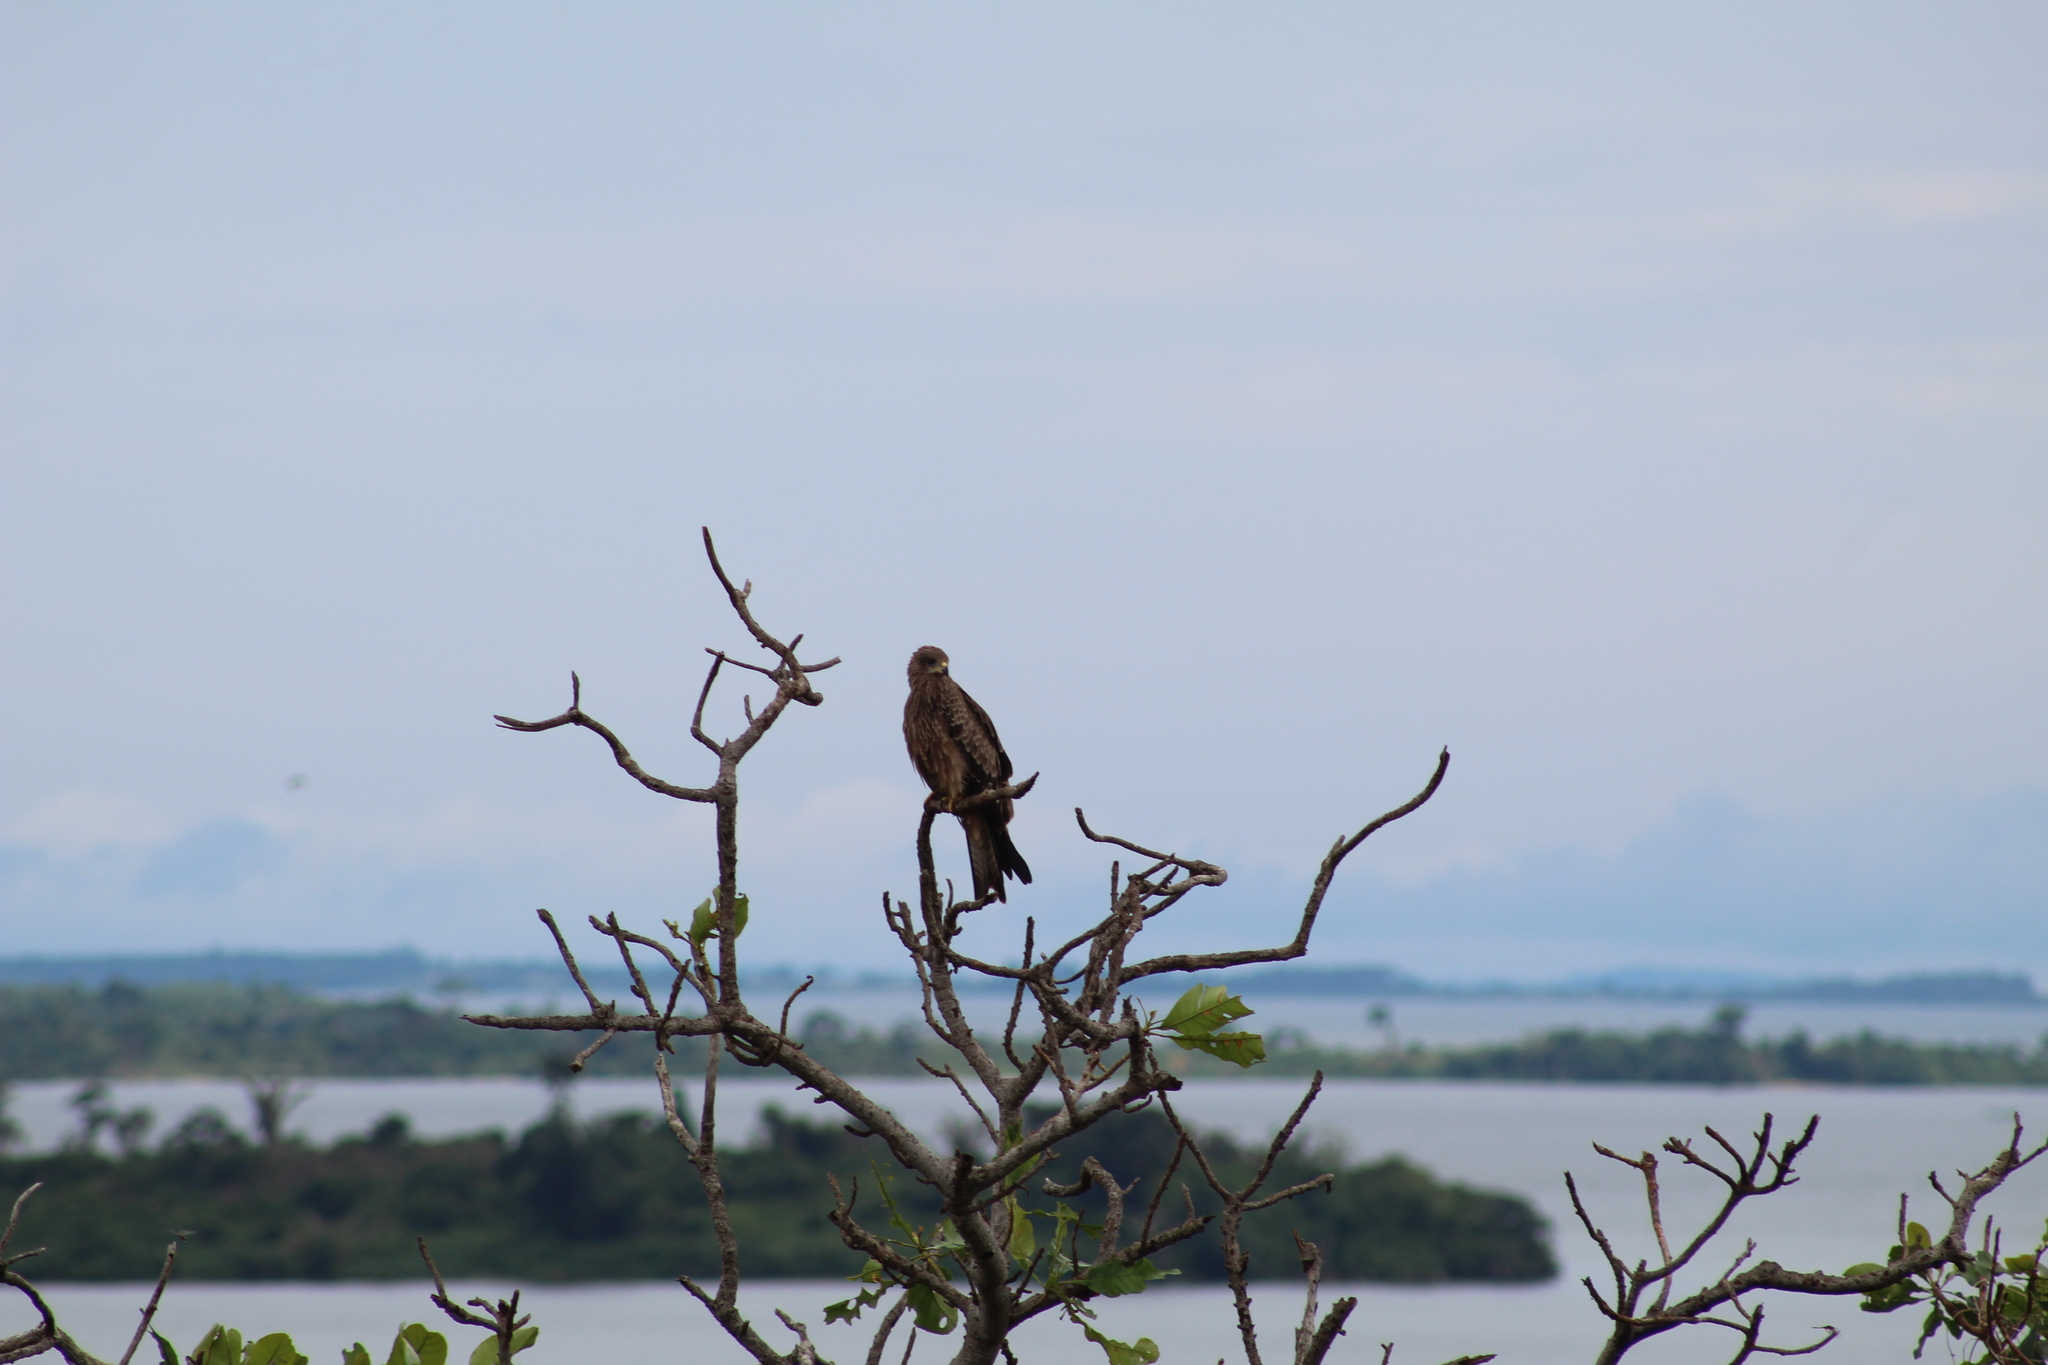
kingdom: Animalia
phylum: Chordata
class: Aves
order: Accipitriformes
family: Accipitridae
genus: Milvus
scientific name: Milvus migrans
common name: Black kite
